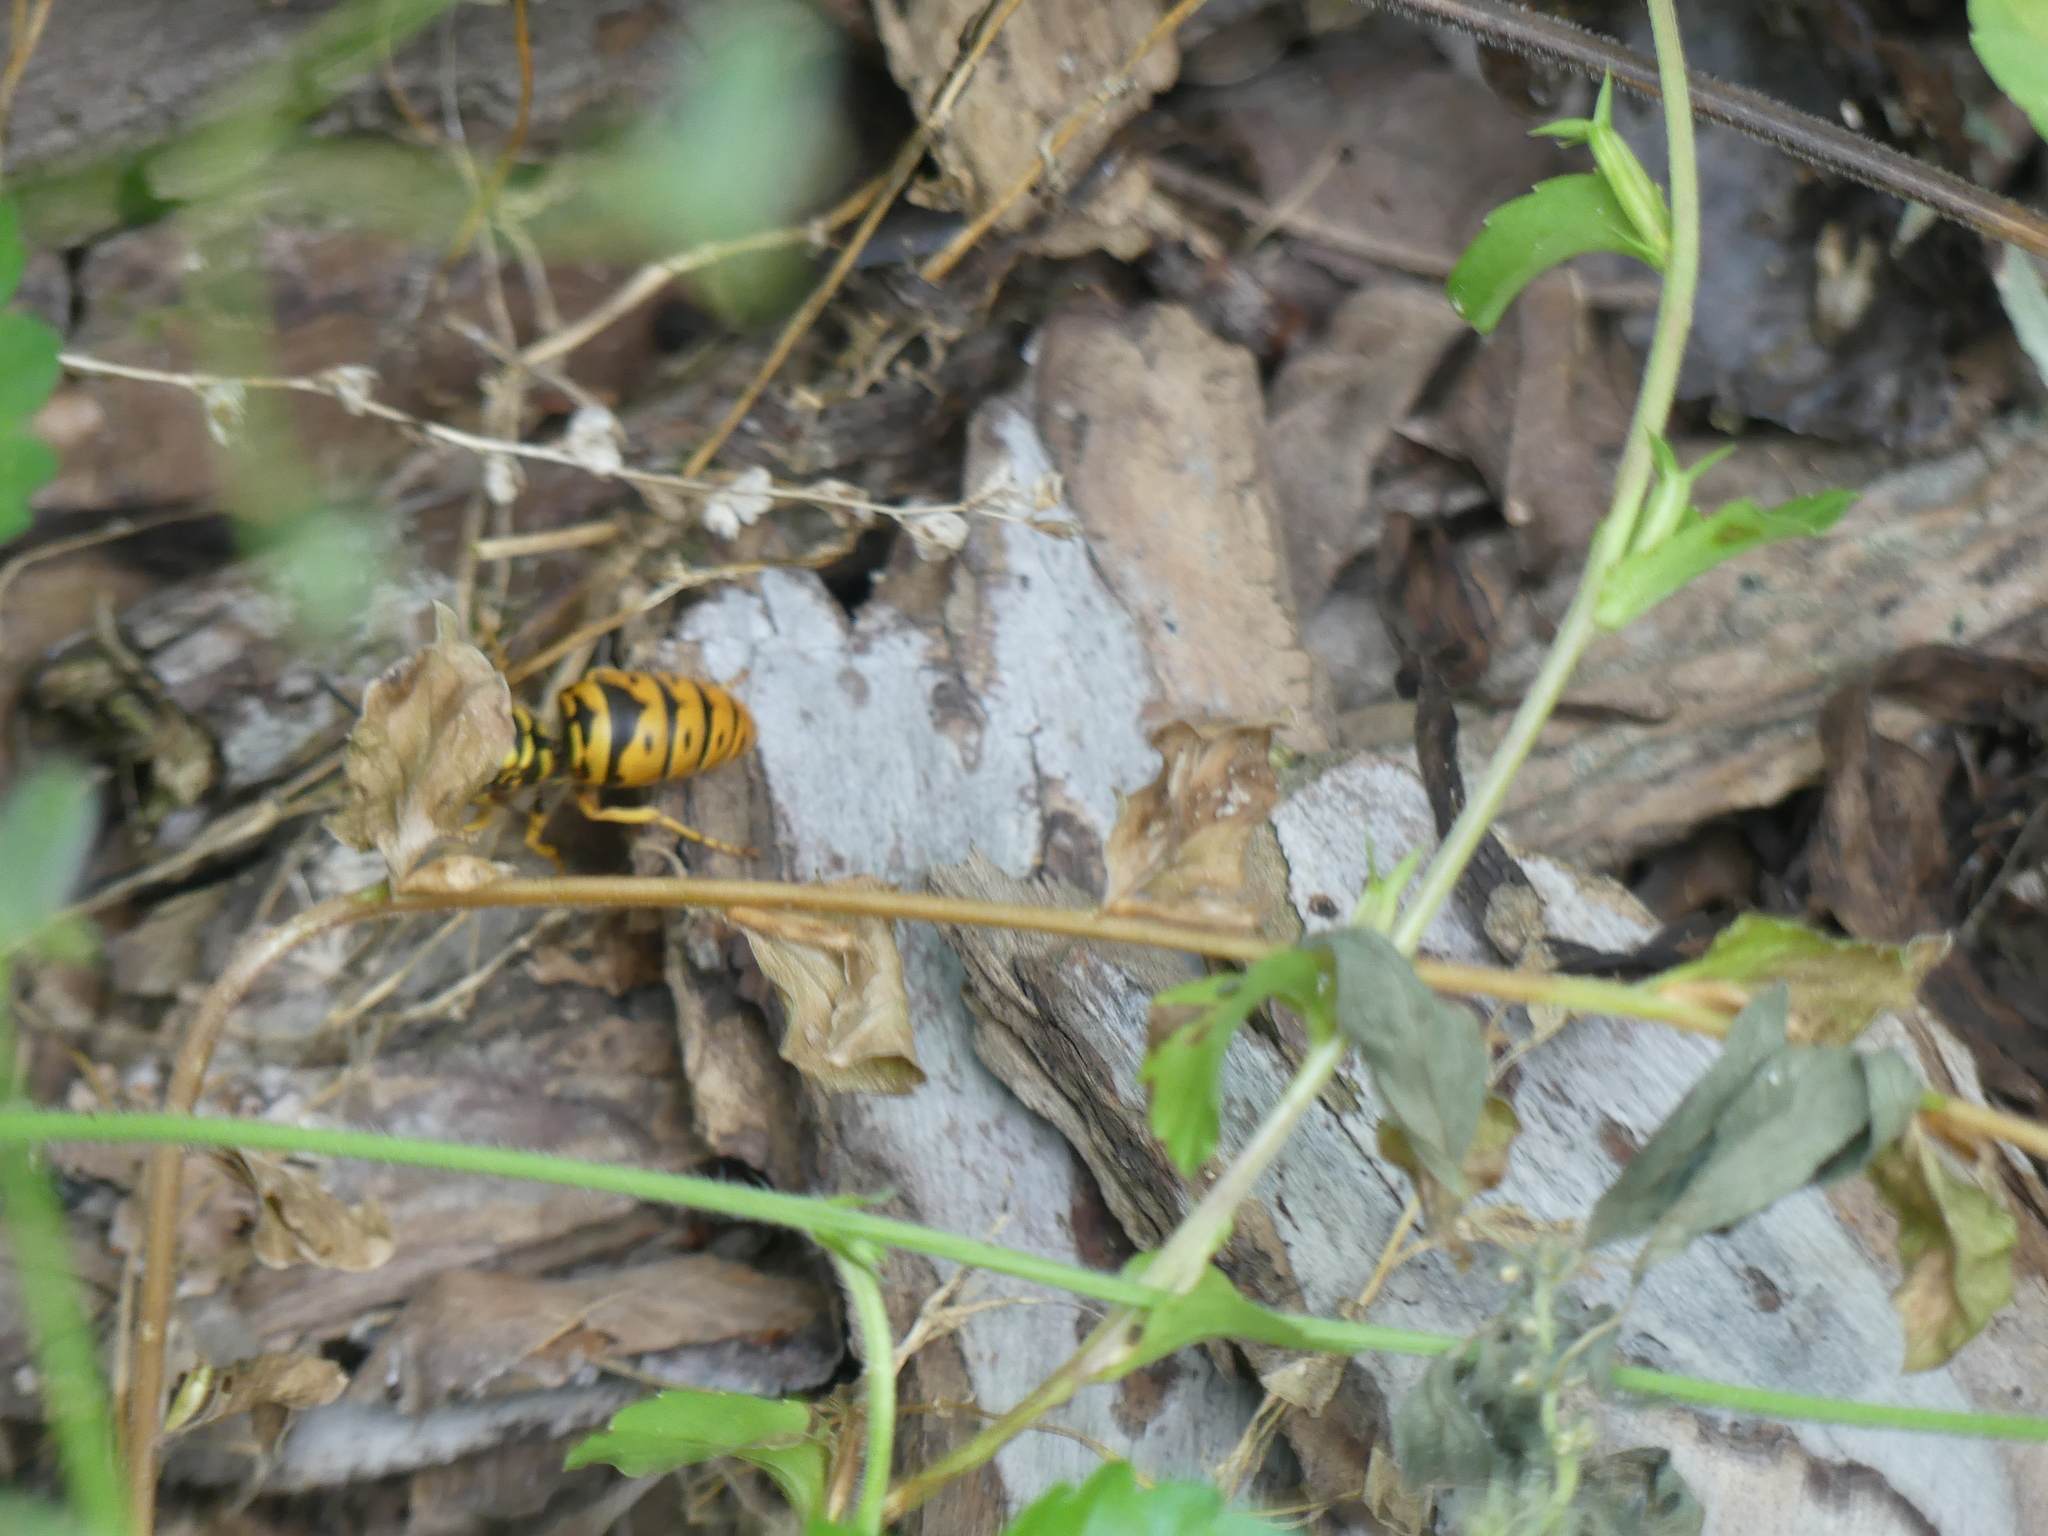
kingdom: Animalia
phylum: Arthropoda
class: Insecta
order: Hymenoptera
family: Vespidae
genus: Vespula
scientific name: Vespula maculifrons
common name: Eastern yellowjacket
